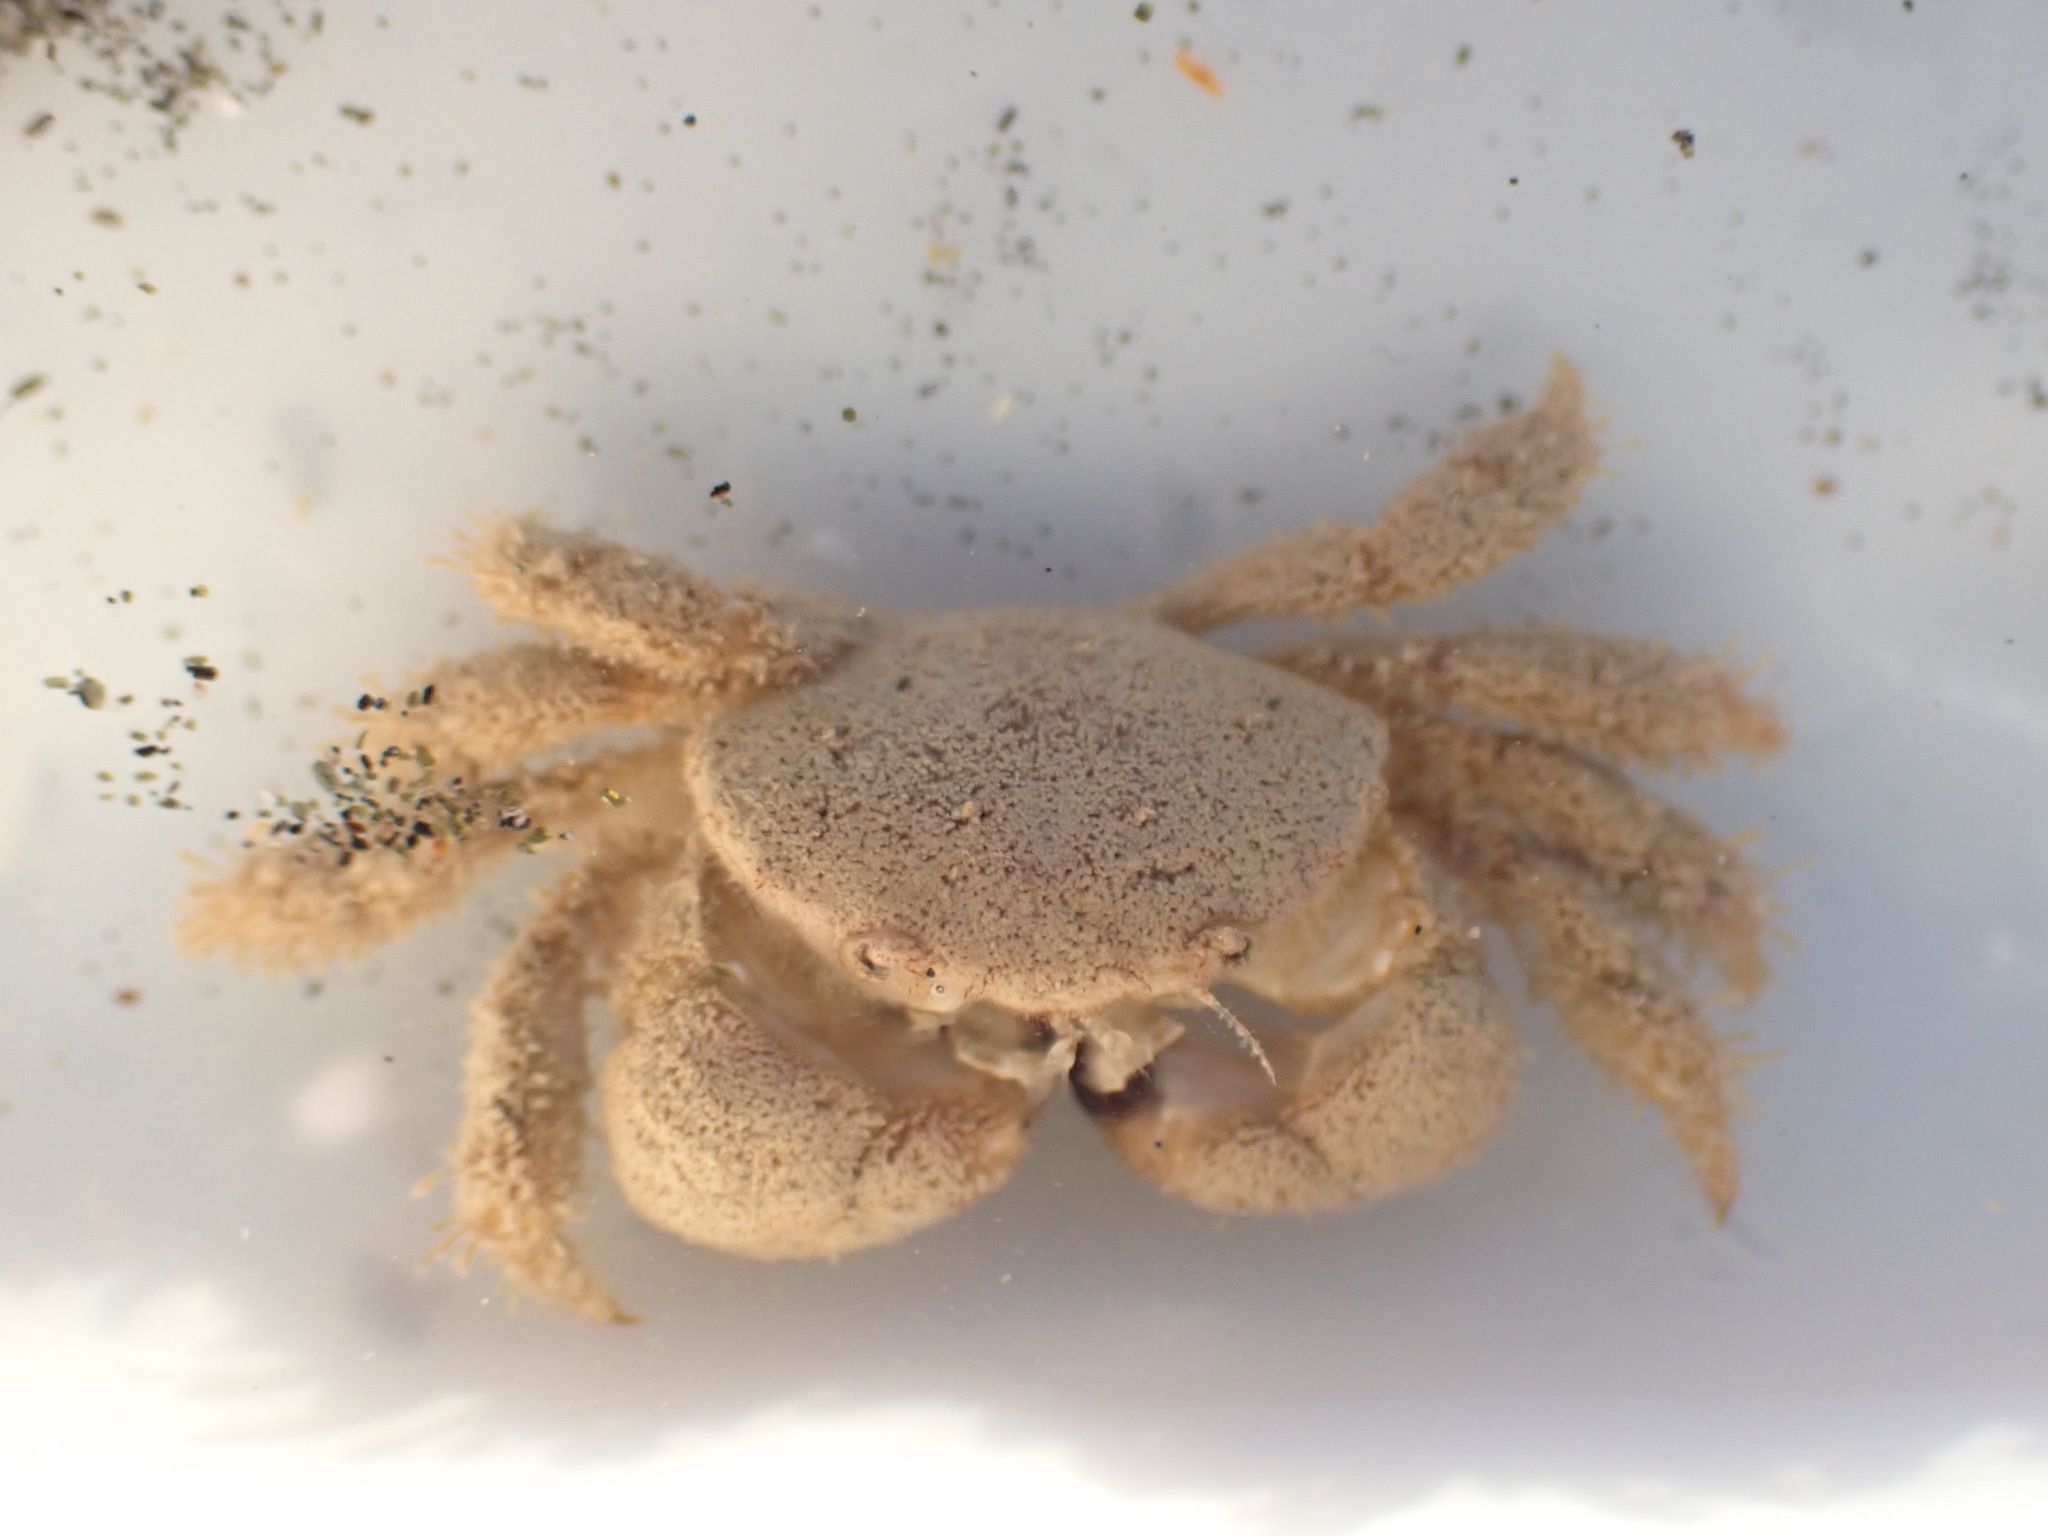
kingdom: Animalia
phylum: Arthropoda
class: Malacostraca
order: Decapoda
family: Pilumnidae
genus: Pilumnus
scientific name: Pilumnus lumpinus
